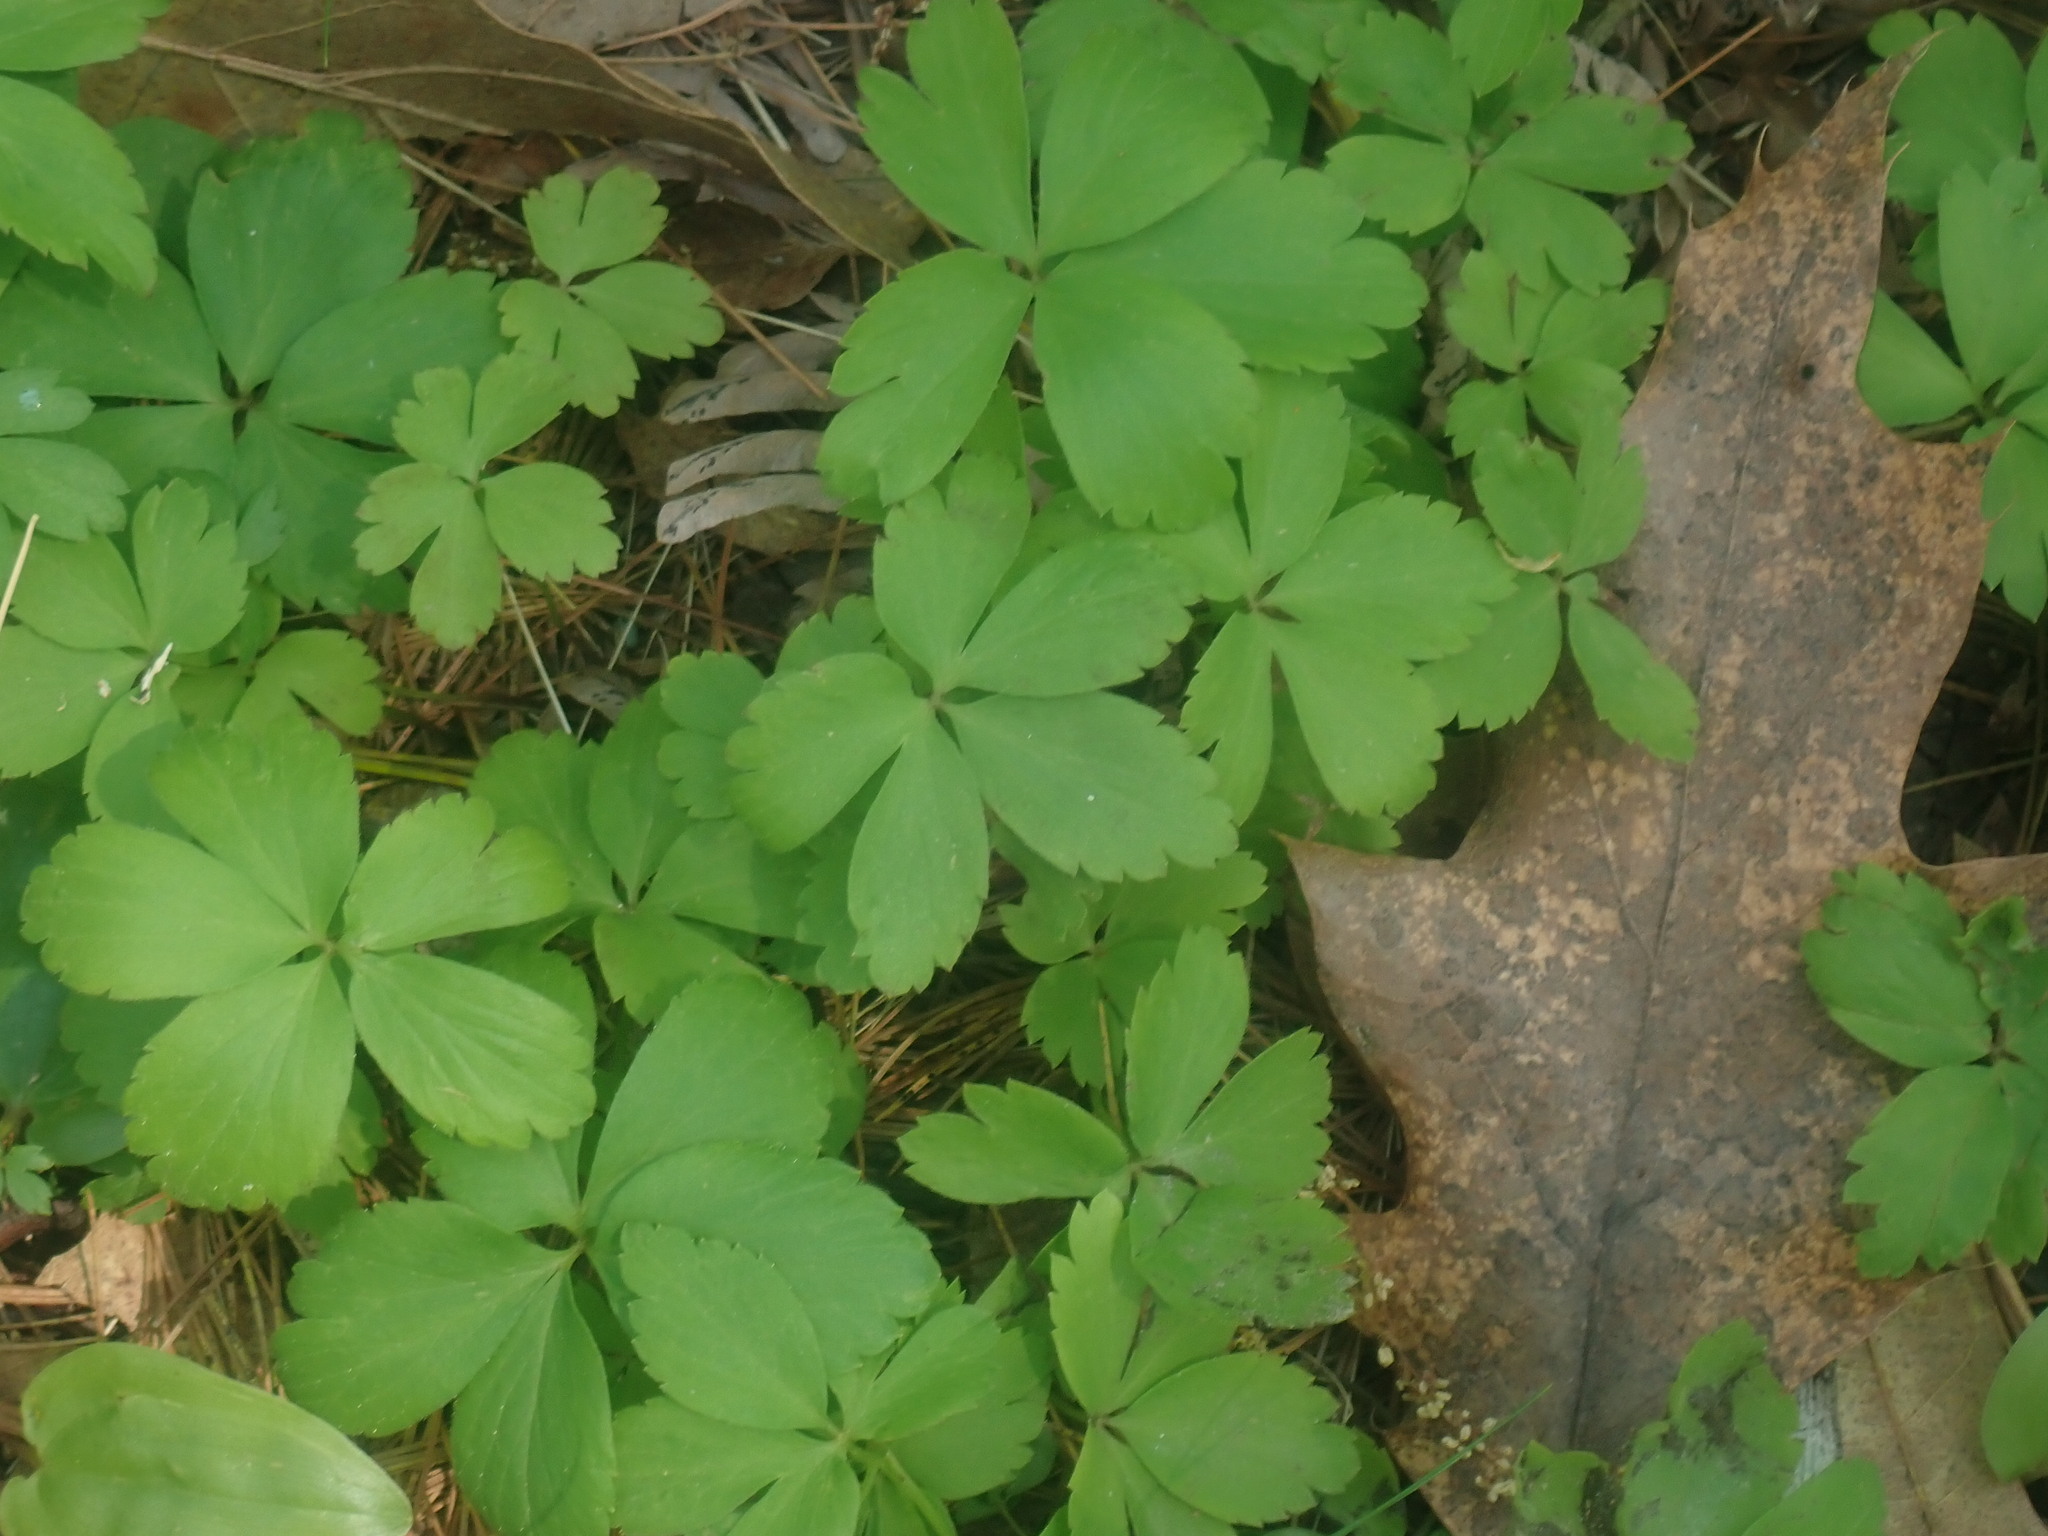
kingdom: Plantae
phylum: Tracheophyta
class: Magnoliopsida
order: Ranunculales
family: Ranunculaceae
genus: Anemone
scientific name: Anemone quinquefolia
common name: Wood anemone
